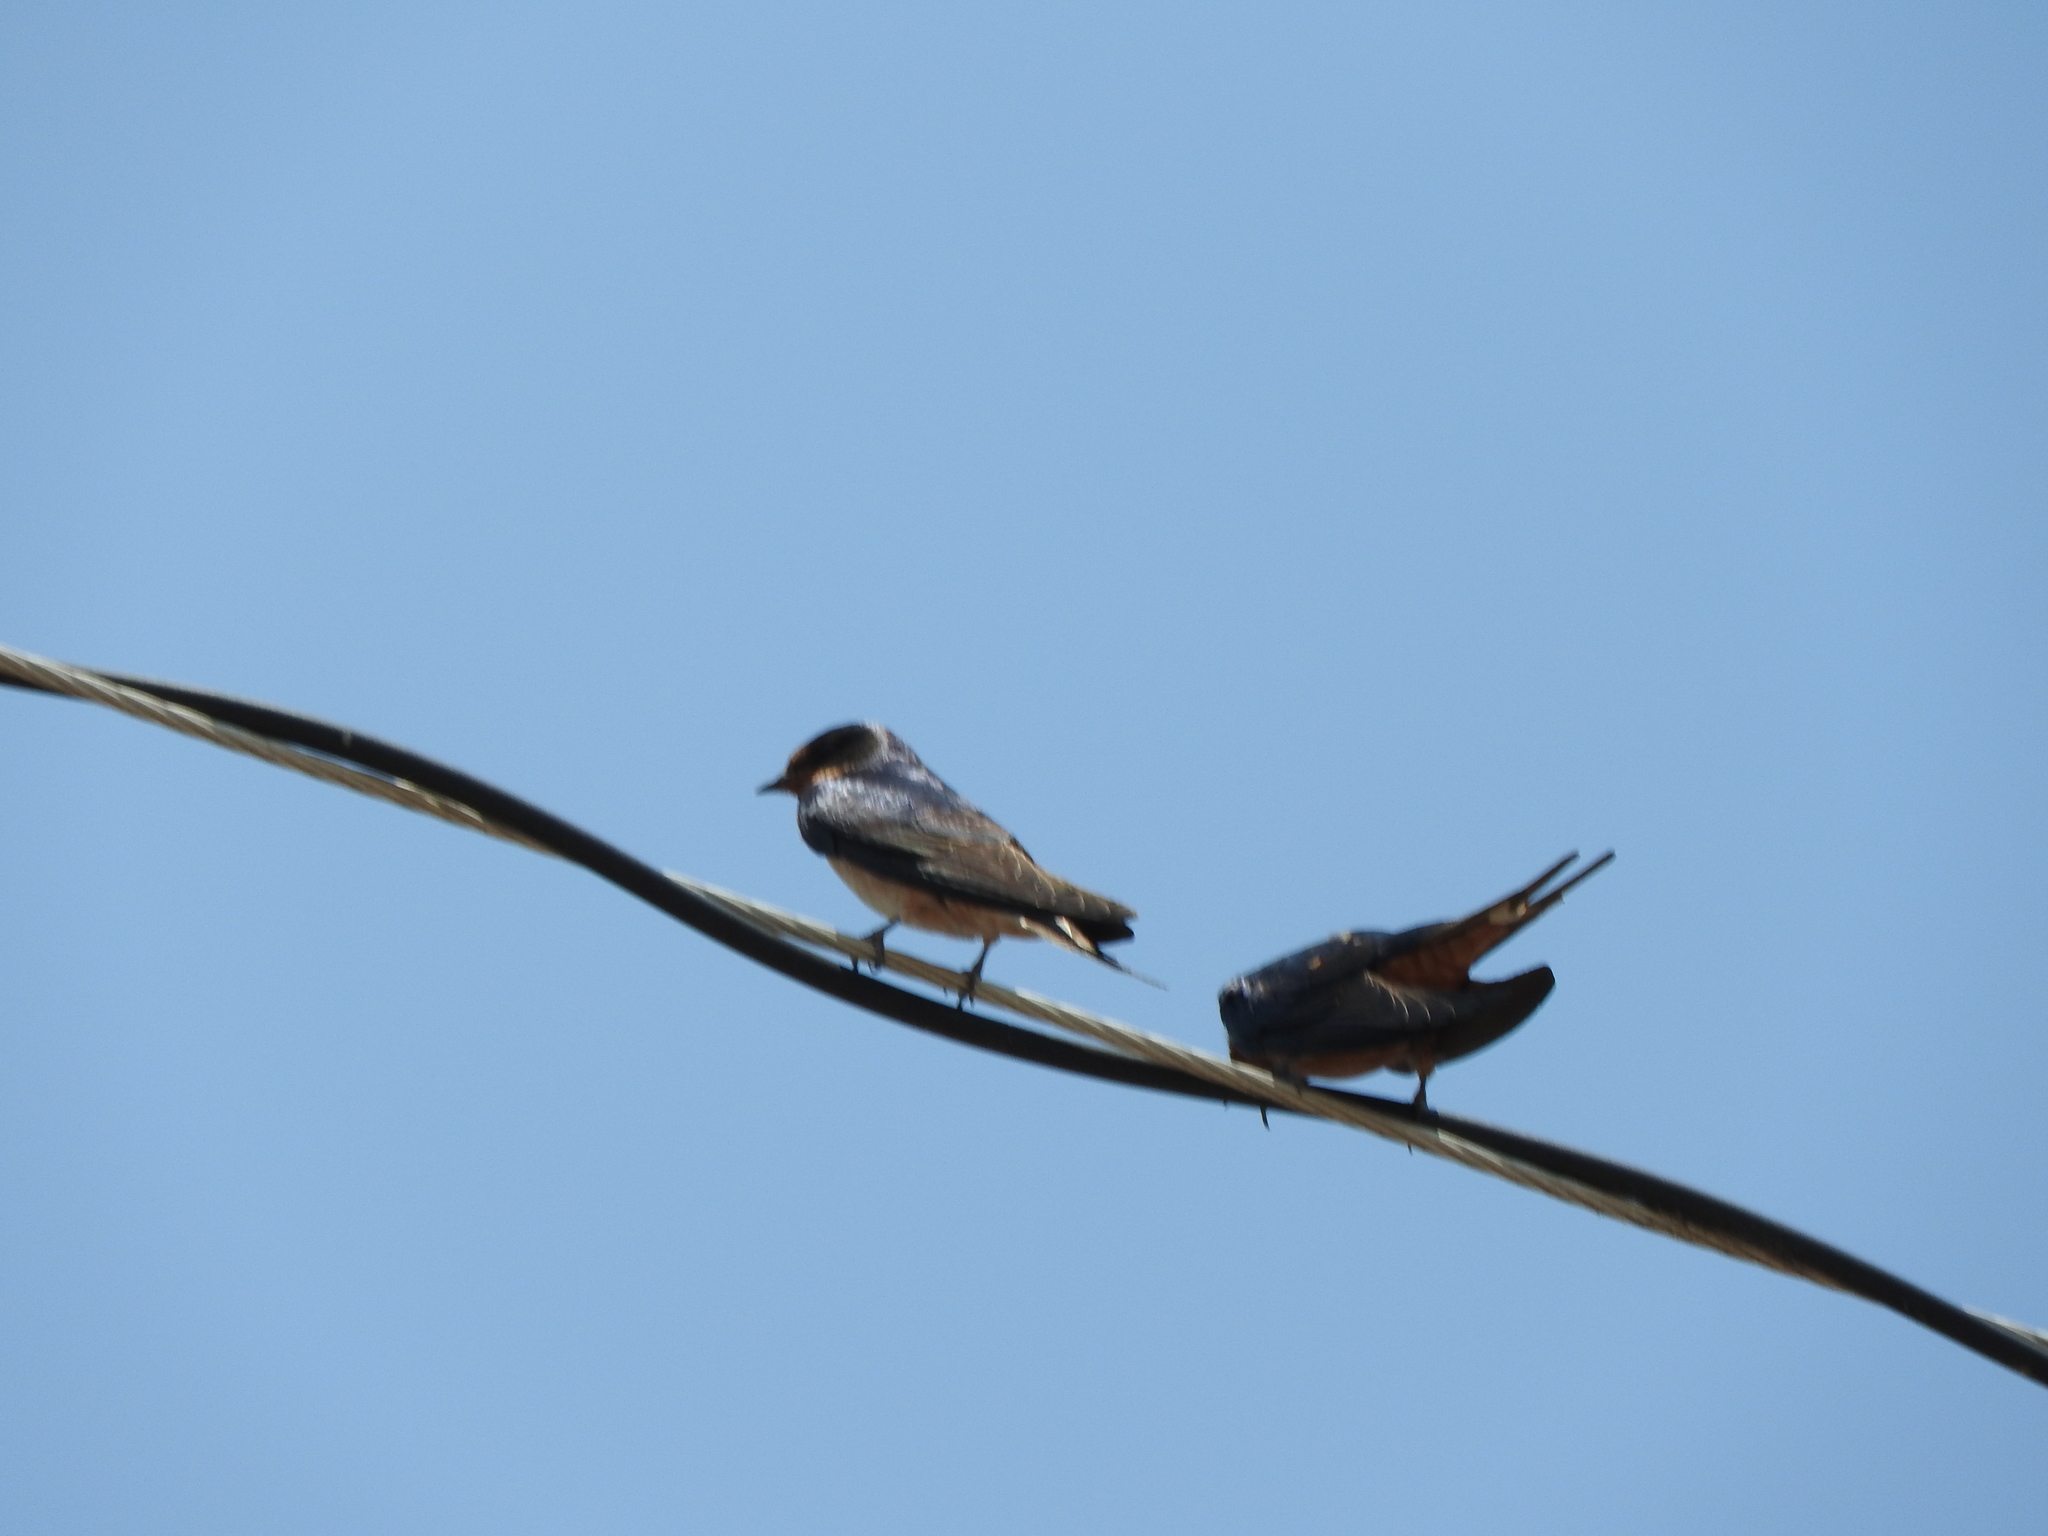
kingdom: Animalia
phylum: Chordata
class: Aves
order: Passeriformes
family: Hirundinidae
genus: Hirundo
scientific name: Hirundo rustica
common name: Barn swallow
